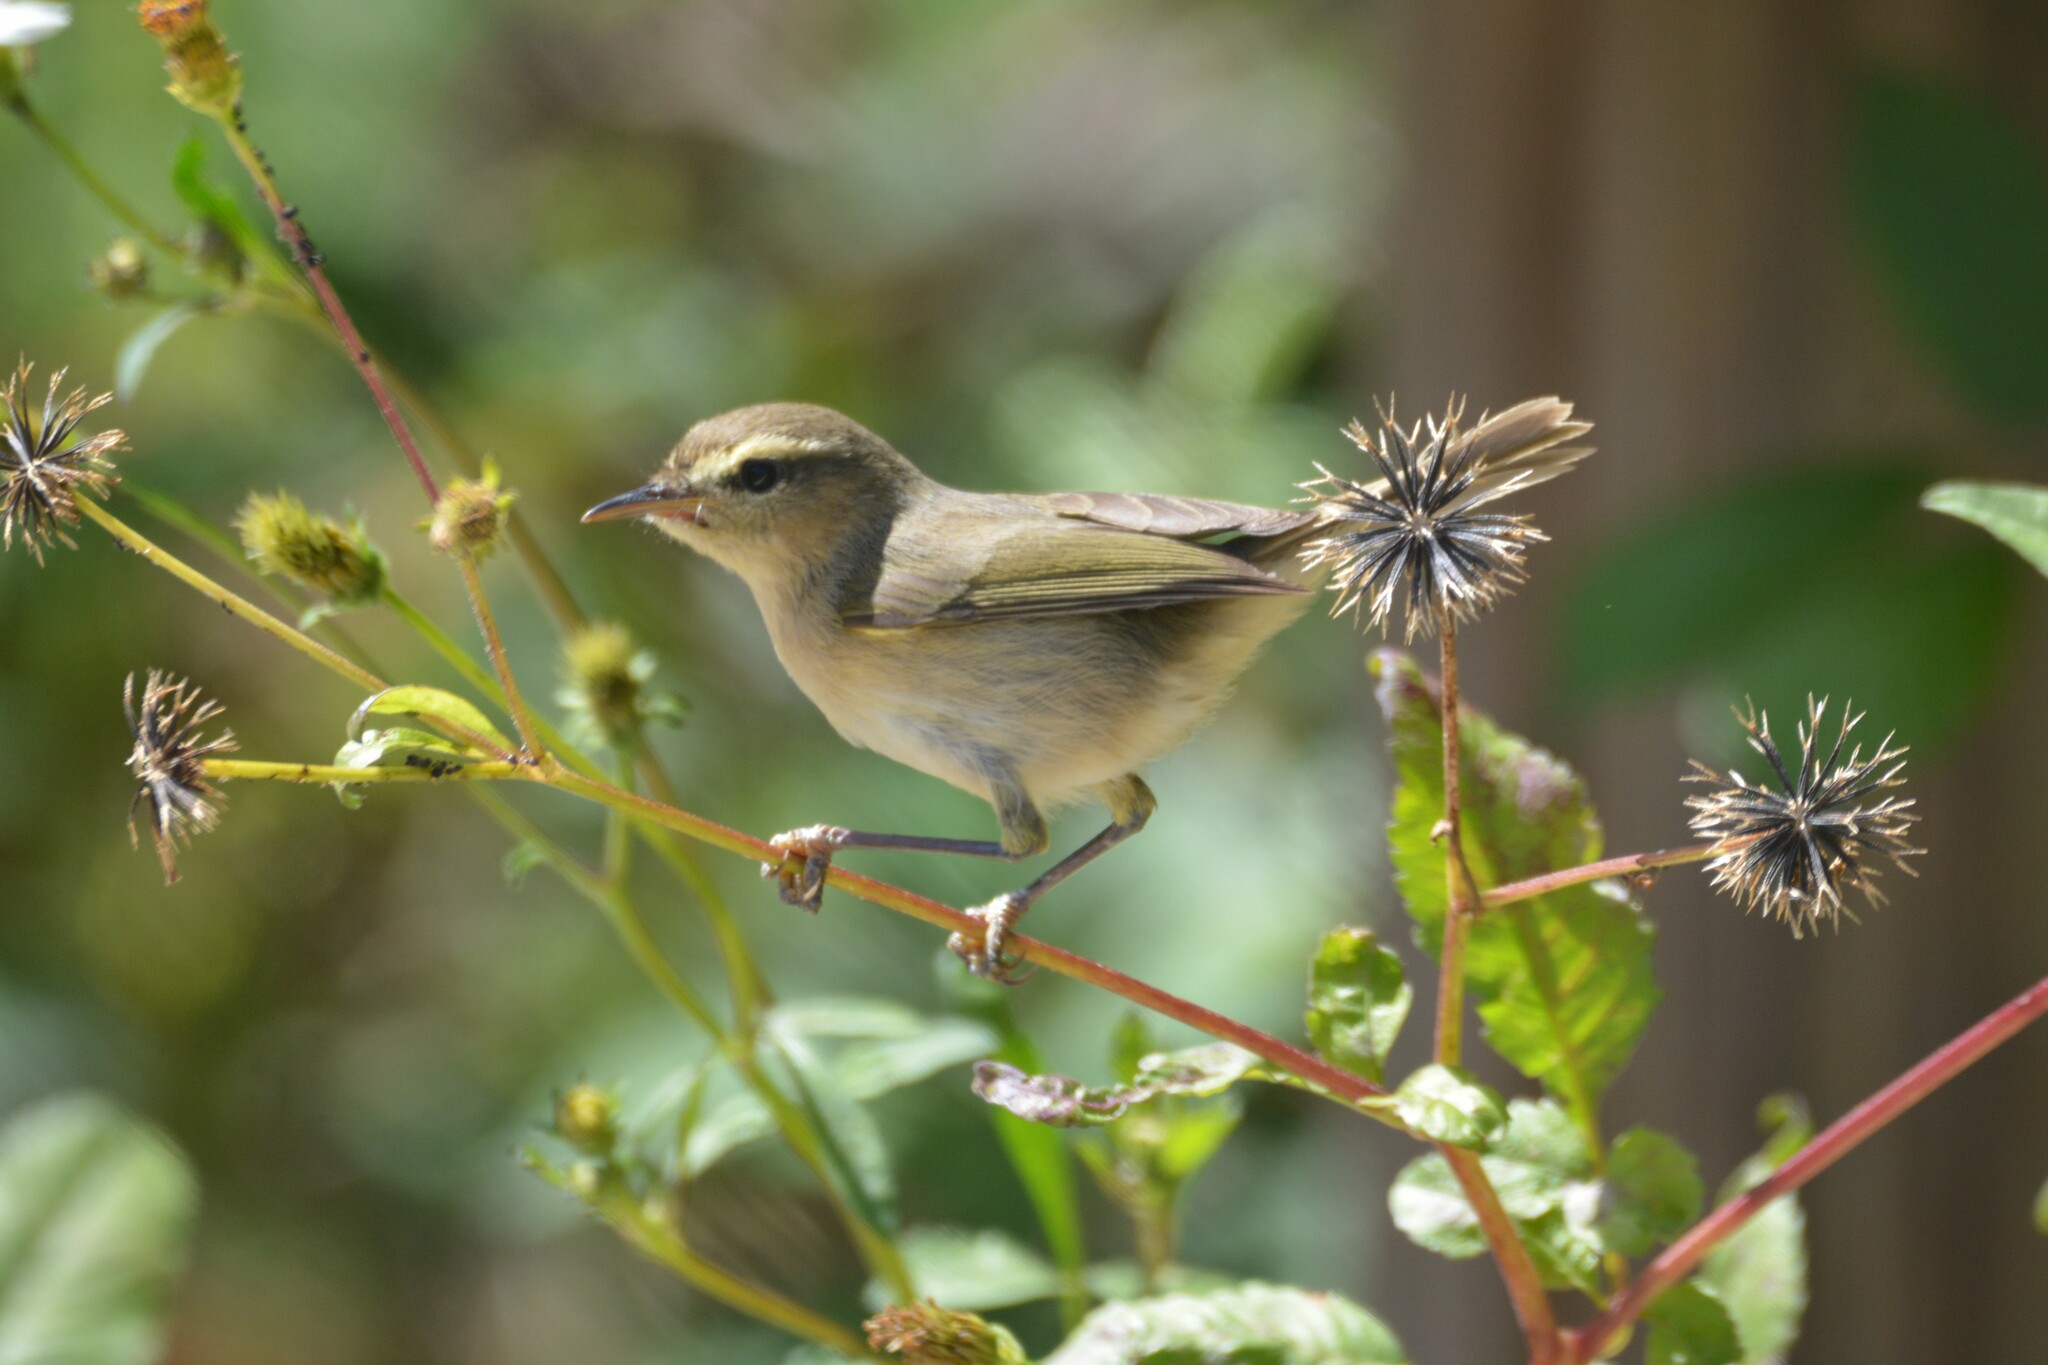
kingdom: Animalia
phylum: Chordata
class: Aves
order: Passeriformes
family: Phylloscopidae
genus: Phylloscopus
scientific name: Phylloscopus canariensis
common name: Canary islands chiffchaff
